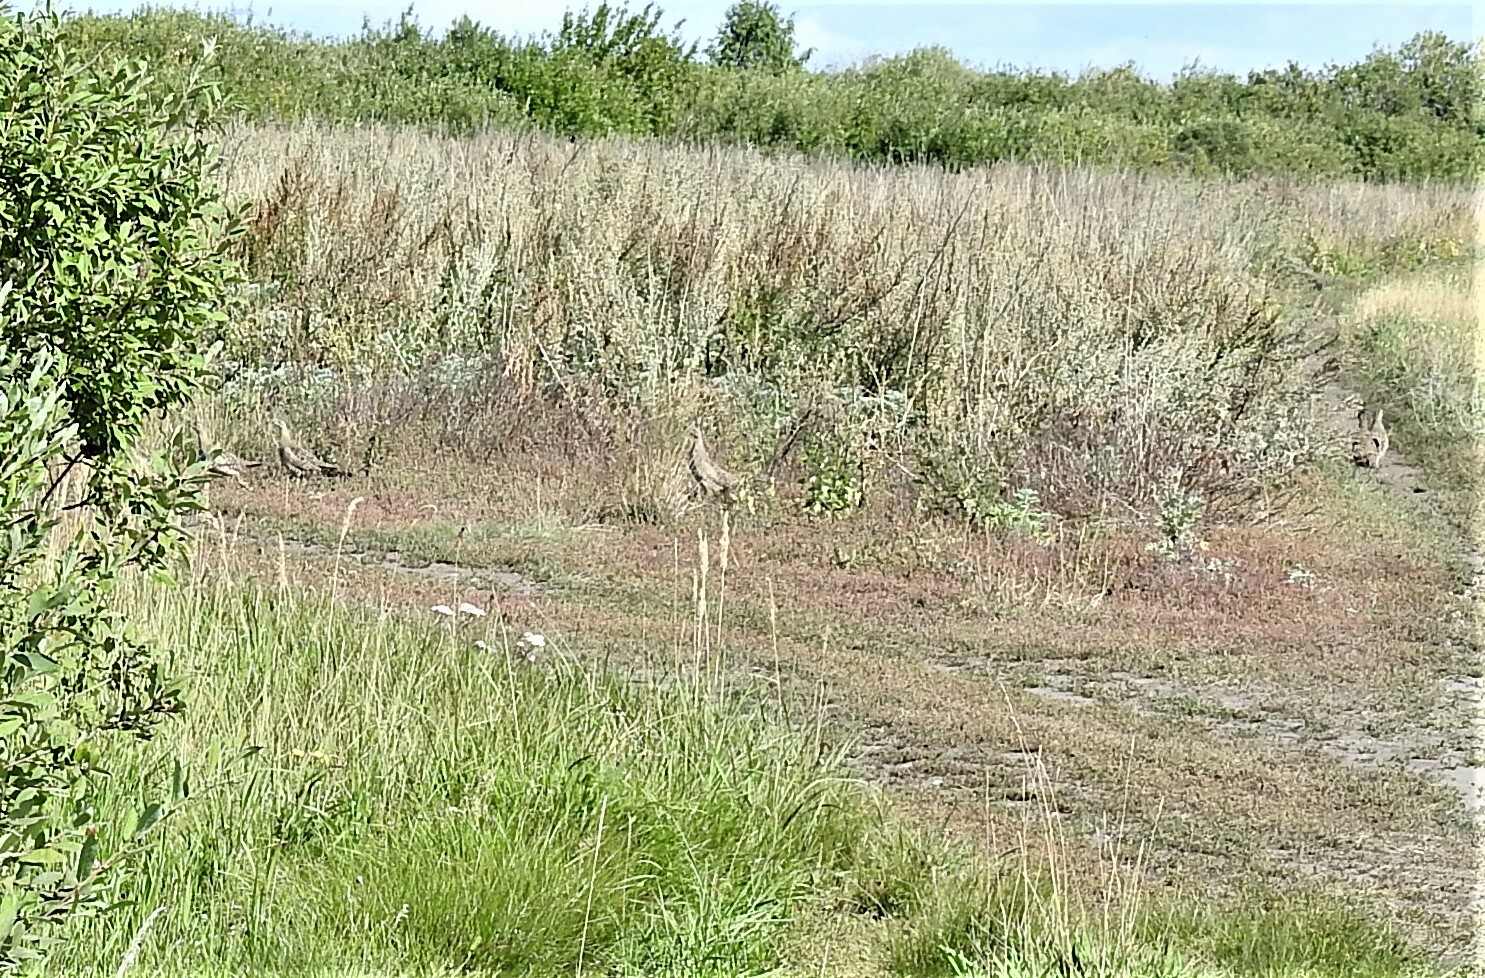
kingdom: Animalia
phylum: Chordata
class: Aves
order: Galliformes
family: Phasianidae
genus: Perdix
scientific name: Perdix perdix
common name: Grey partridge
